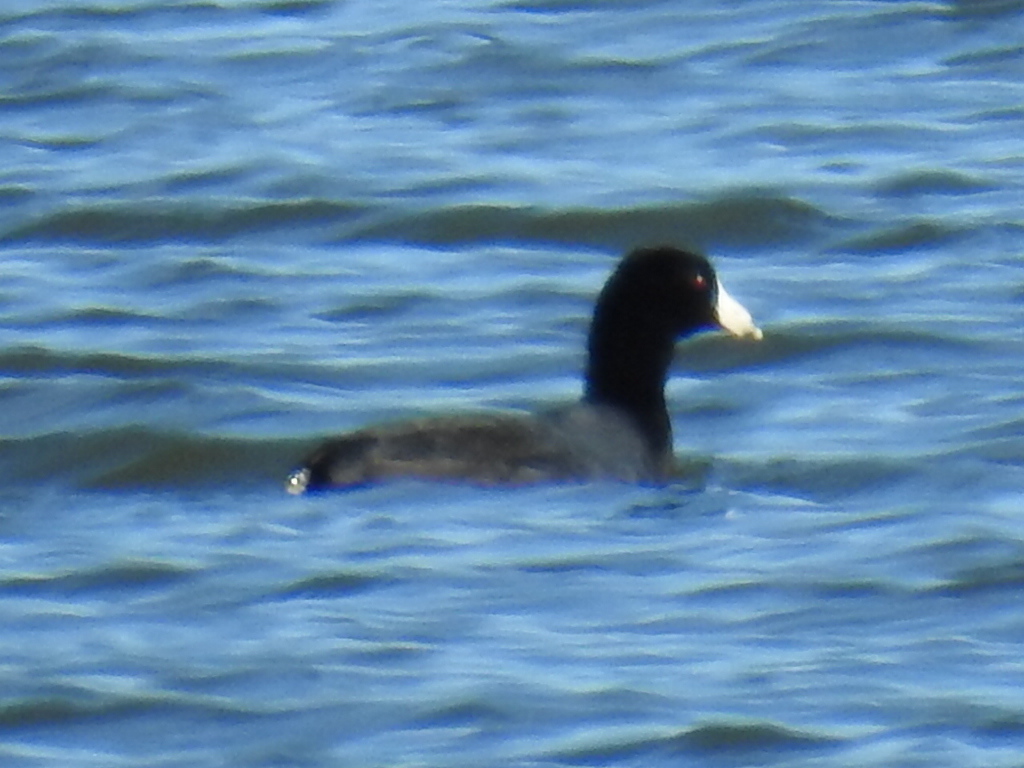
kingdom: Animalia
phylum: Chordata
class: Aves
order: Gruiformes
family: Rallidae
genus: Fulica
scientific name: Fulica americana
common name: American coot
